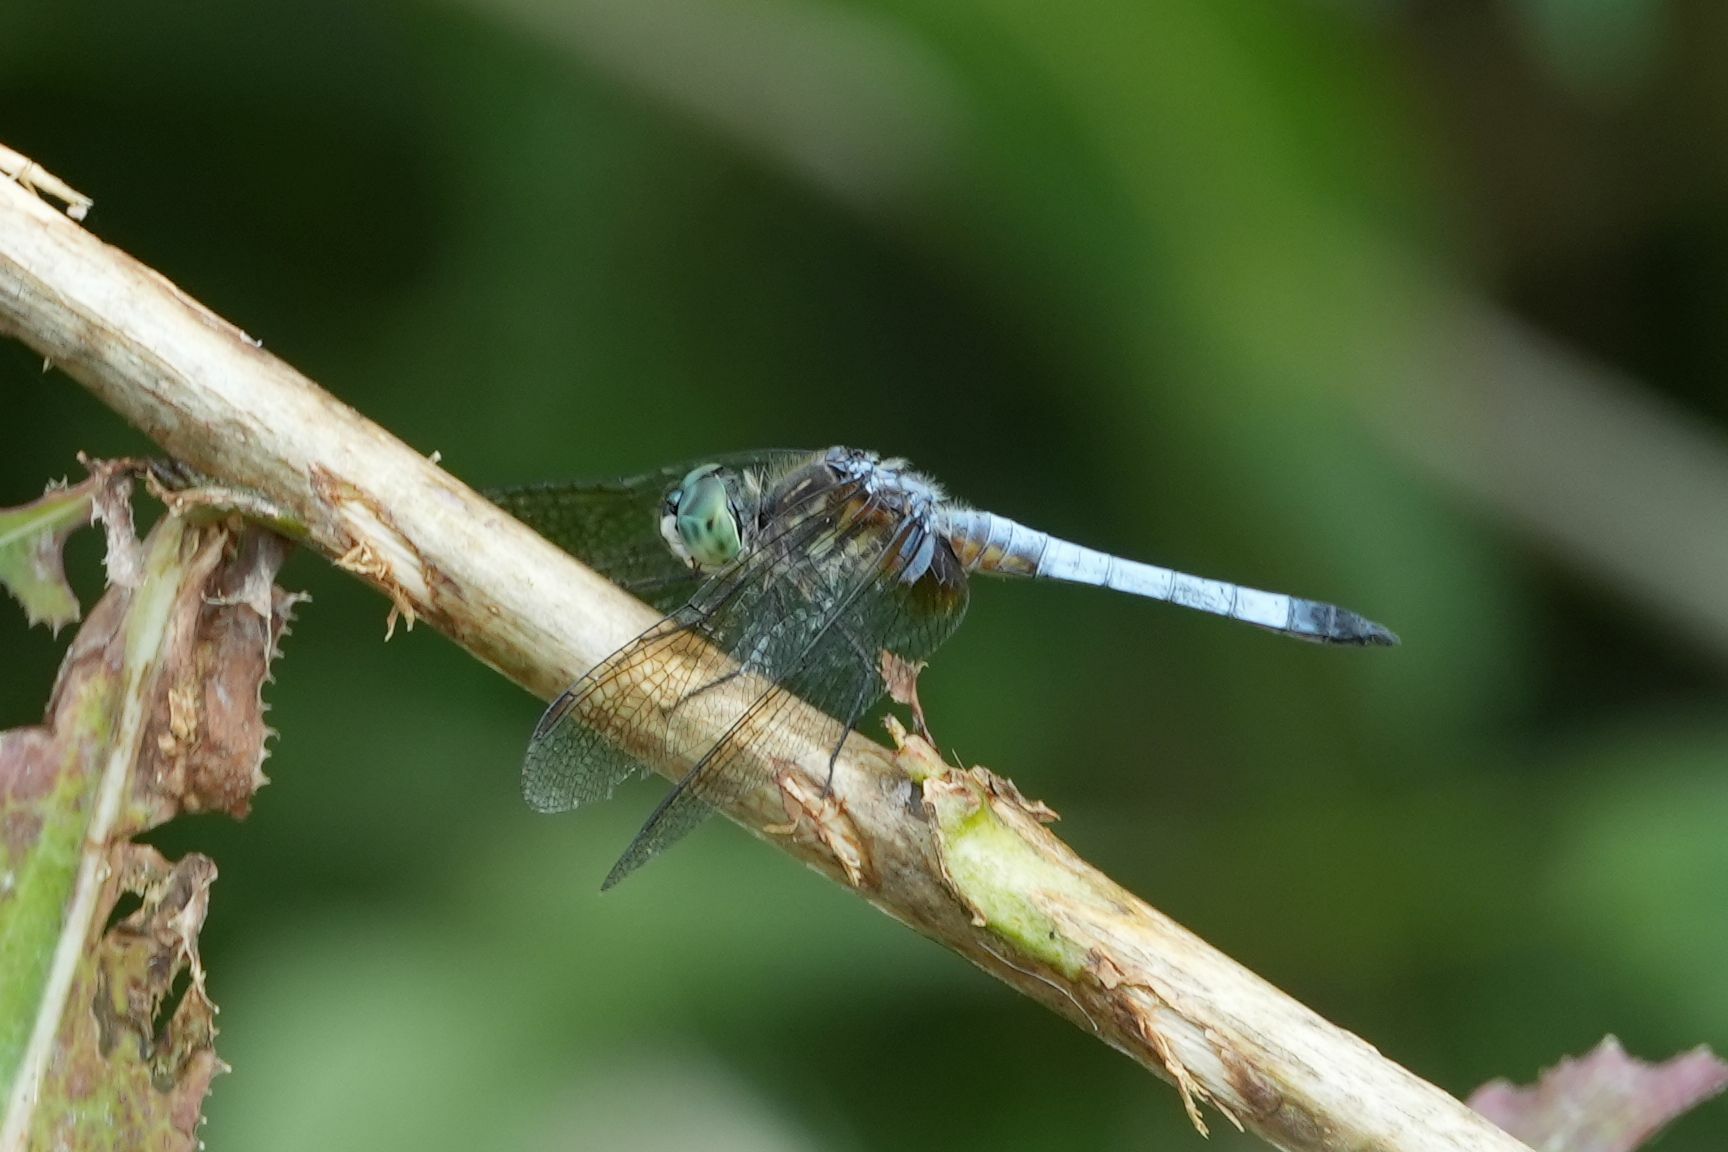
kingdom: Animalia
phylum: Arthropoda
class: Insecta
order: Odonata
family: Libellulidae
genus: Pachydiplax
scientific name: Pachydiplax longipennis
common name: Blue dasher
